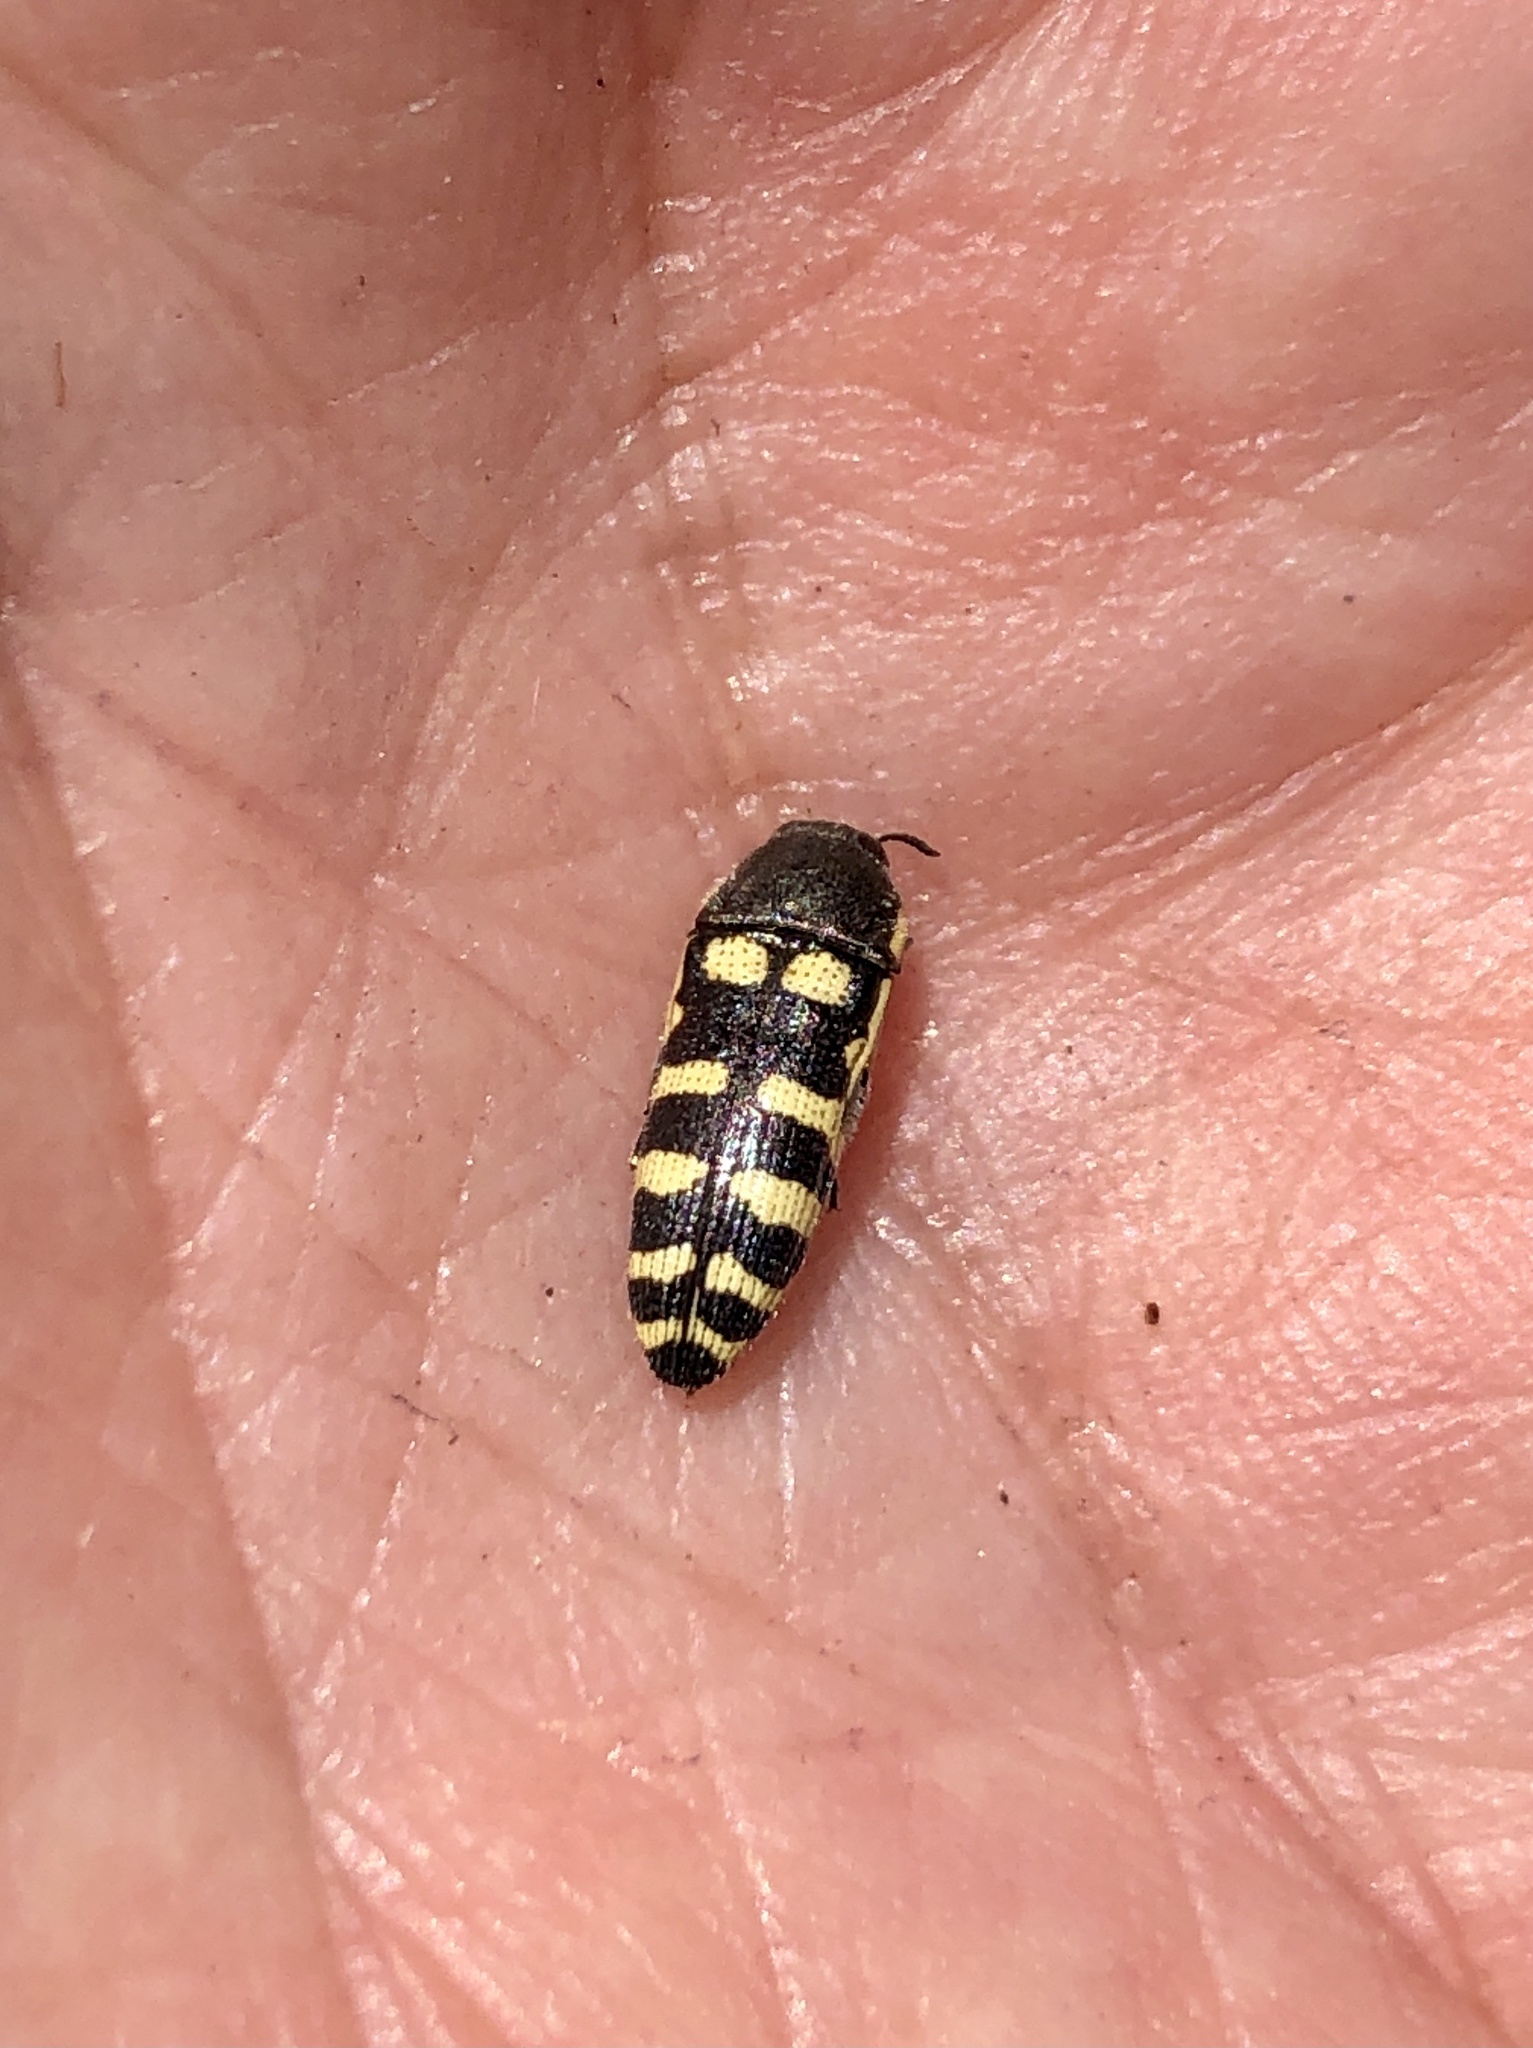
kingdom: Animalia
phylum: Arthropoda
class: Insecta
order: Coleoptera
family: Buprestidae
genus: Acmaeodera
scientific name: Acmaeodera alicia
